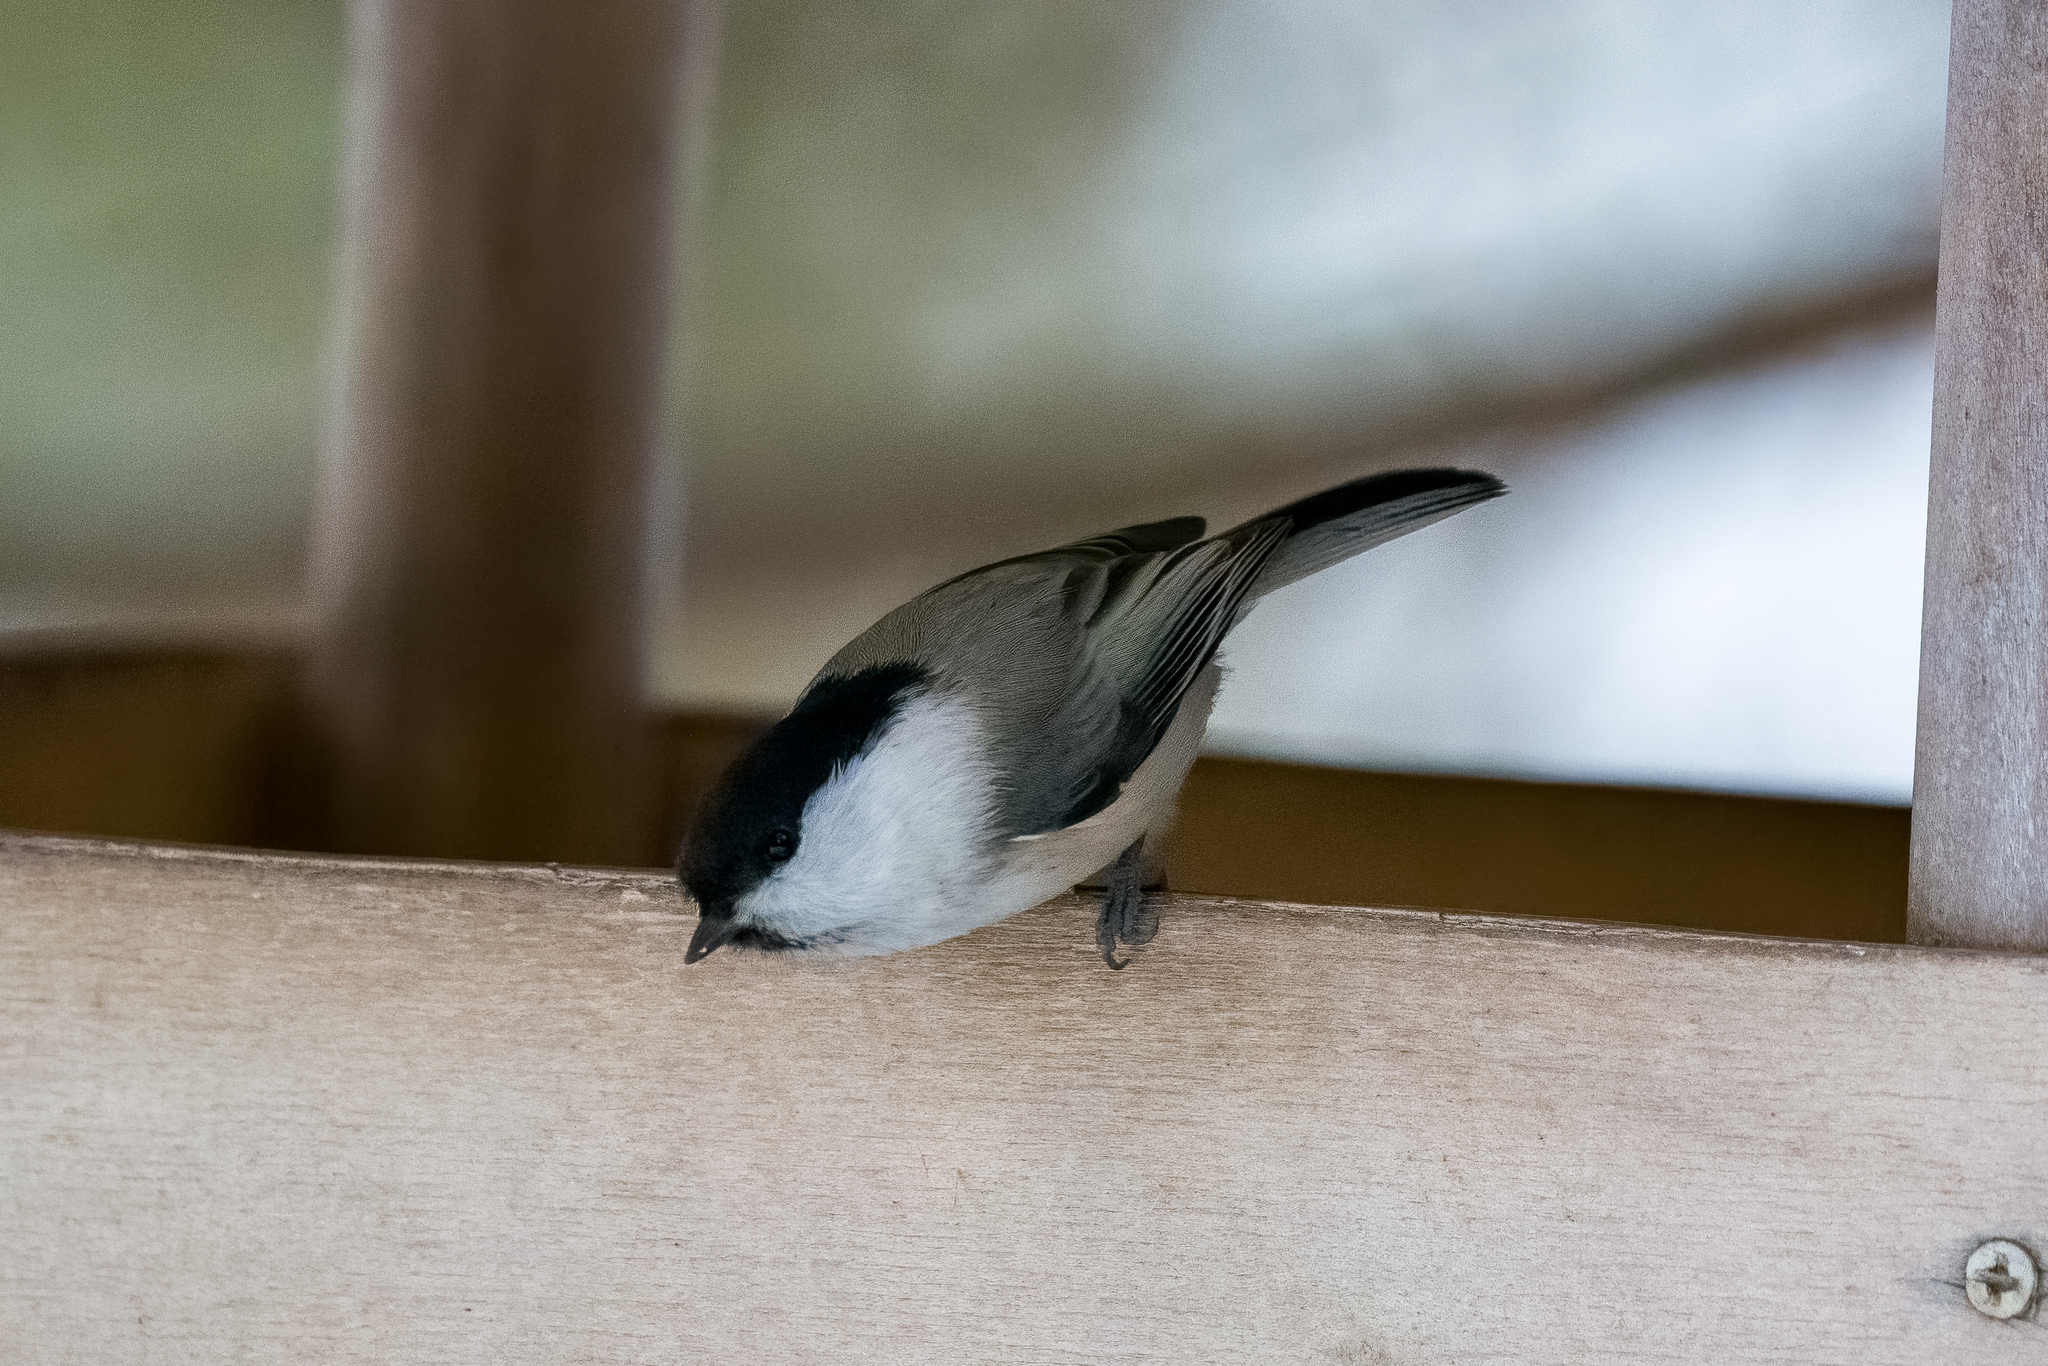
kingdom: Animalia
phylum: Chordata
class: Aves
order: Passeriformes
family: Paridae
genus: Poecile
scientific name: Poecile montanus
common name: Willow tit
